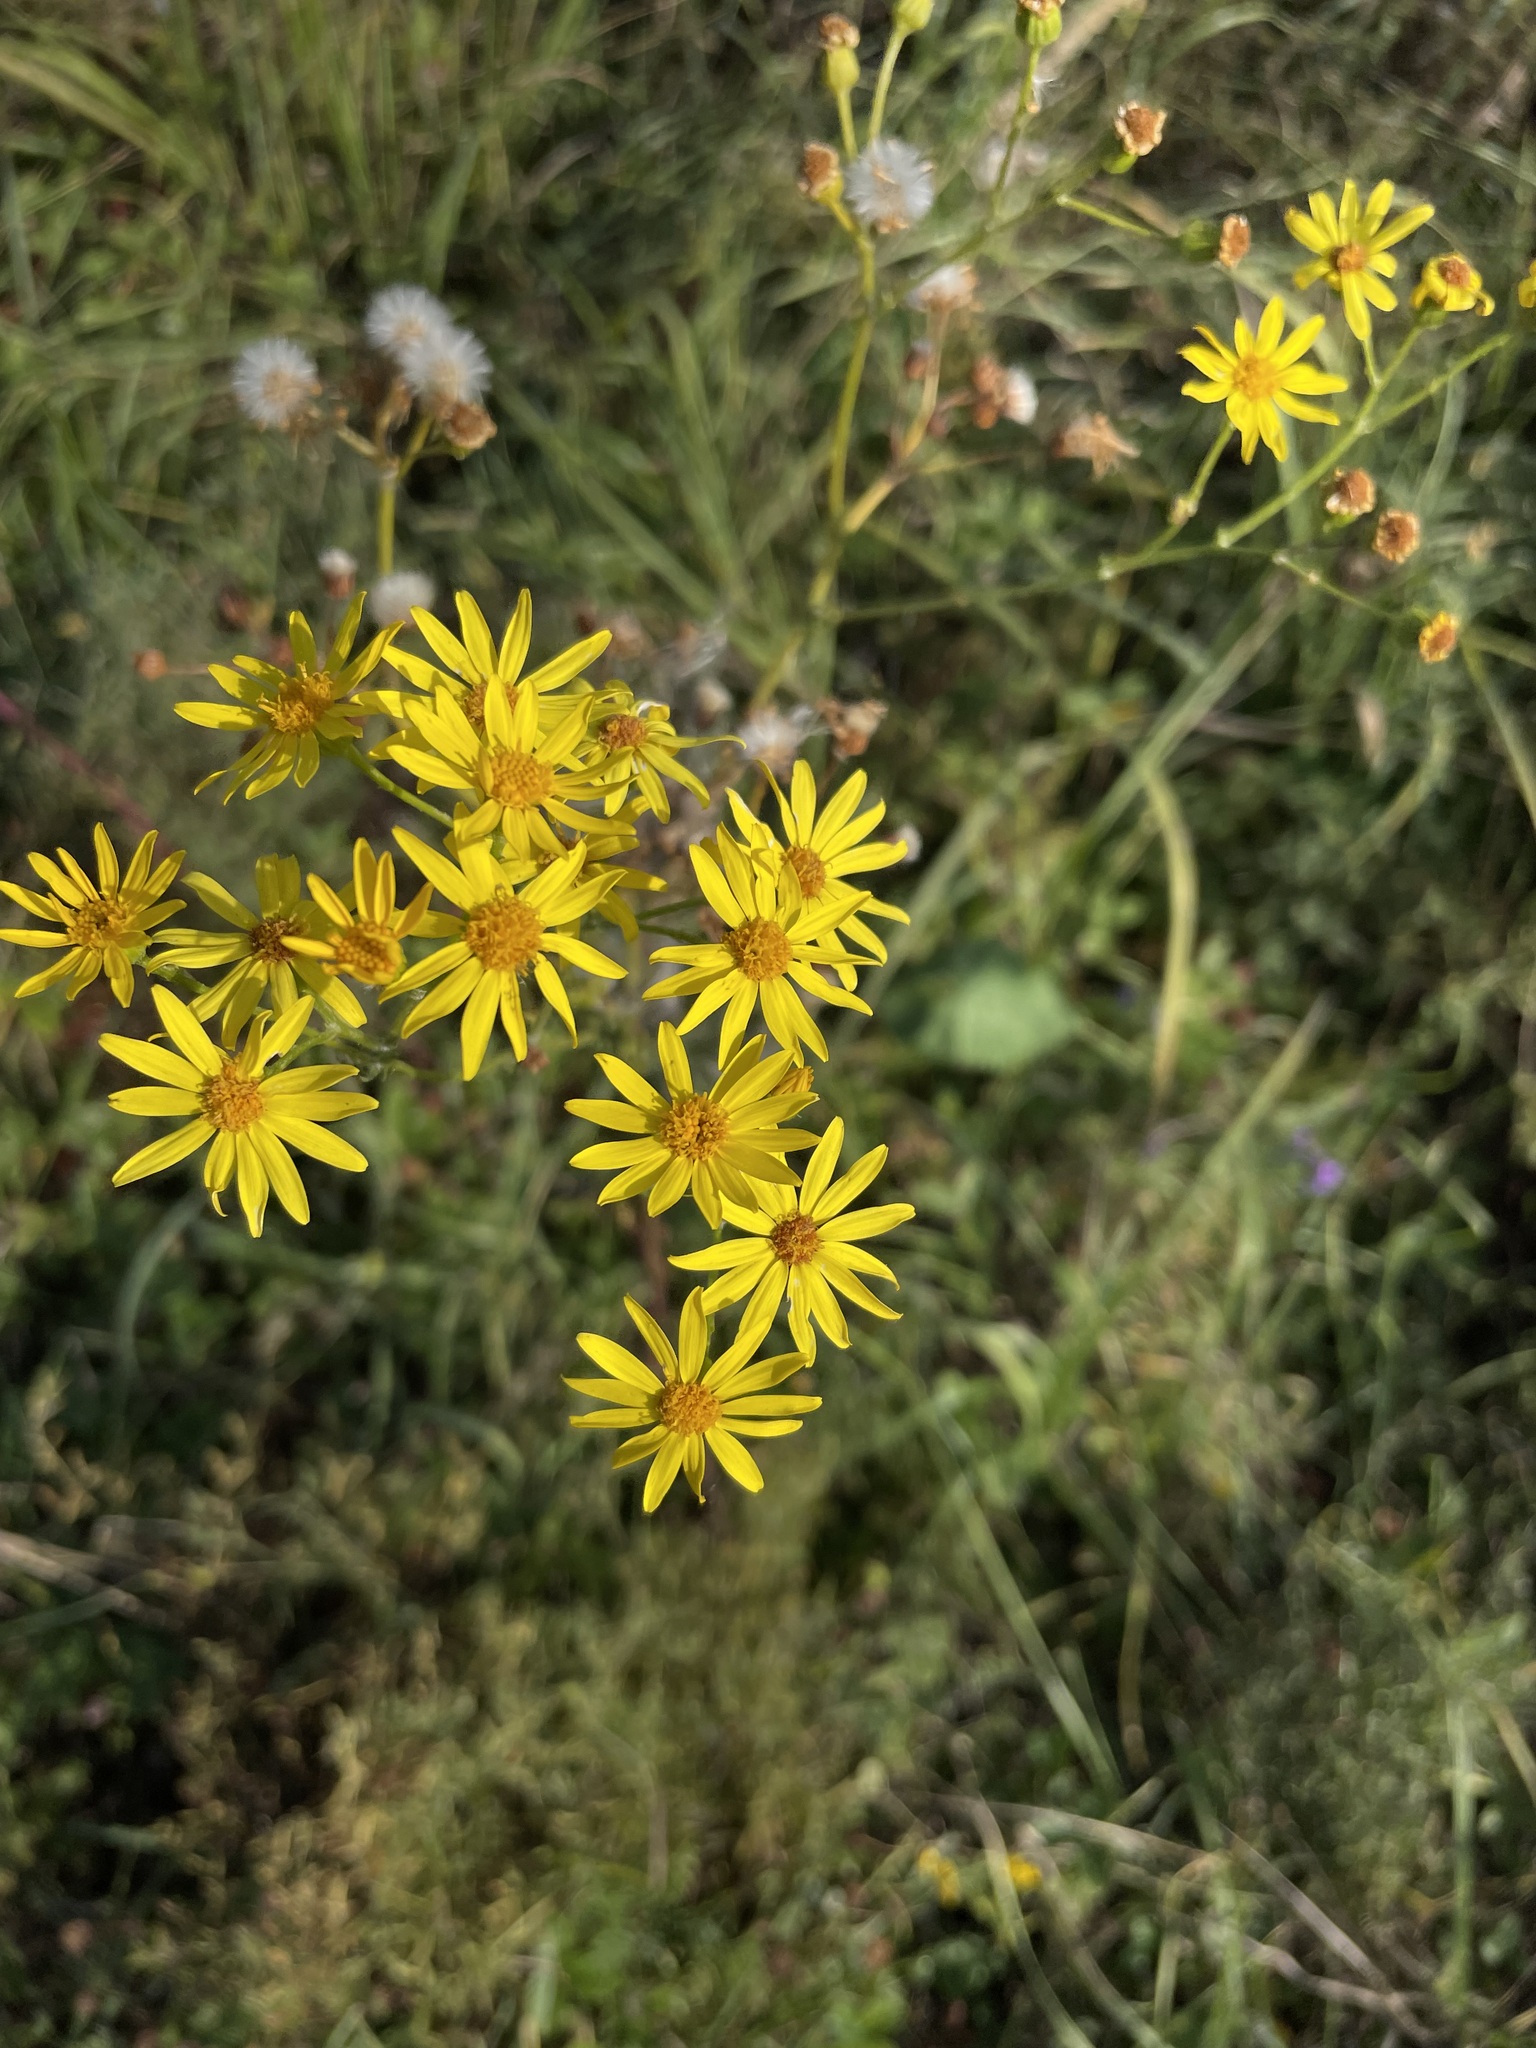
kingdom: Plantae
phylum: Tracheophyta
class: Magnoliopsida
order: Asterales
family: Asteraceae
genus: Jacobaea
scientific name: Jacobaea vulgaris
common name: Stinking willie
